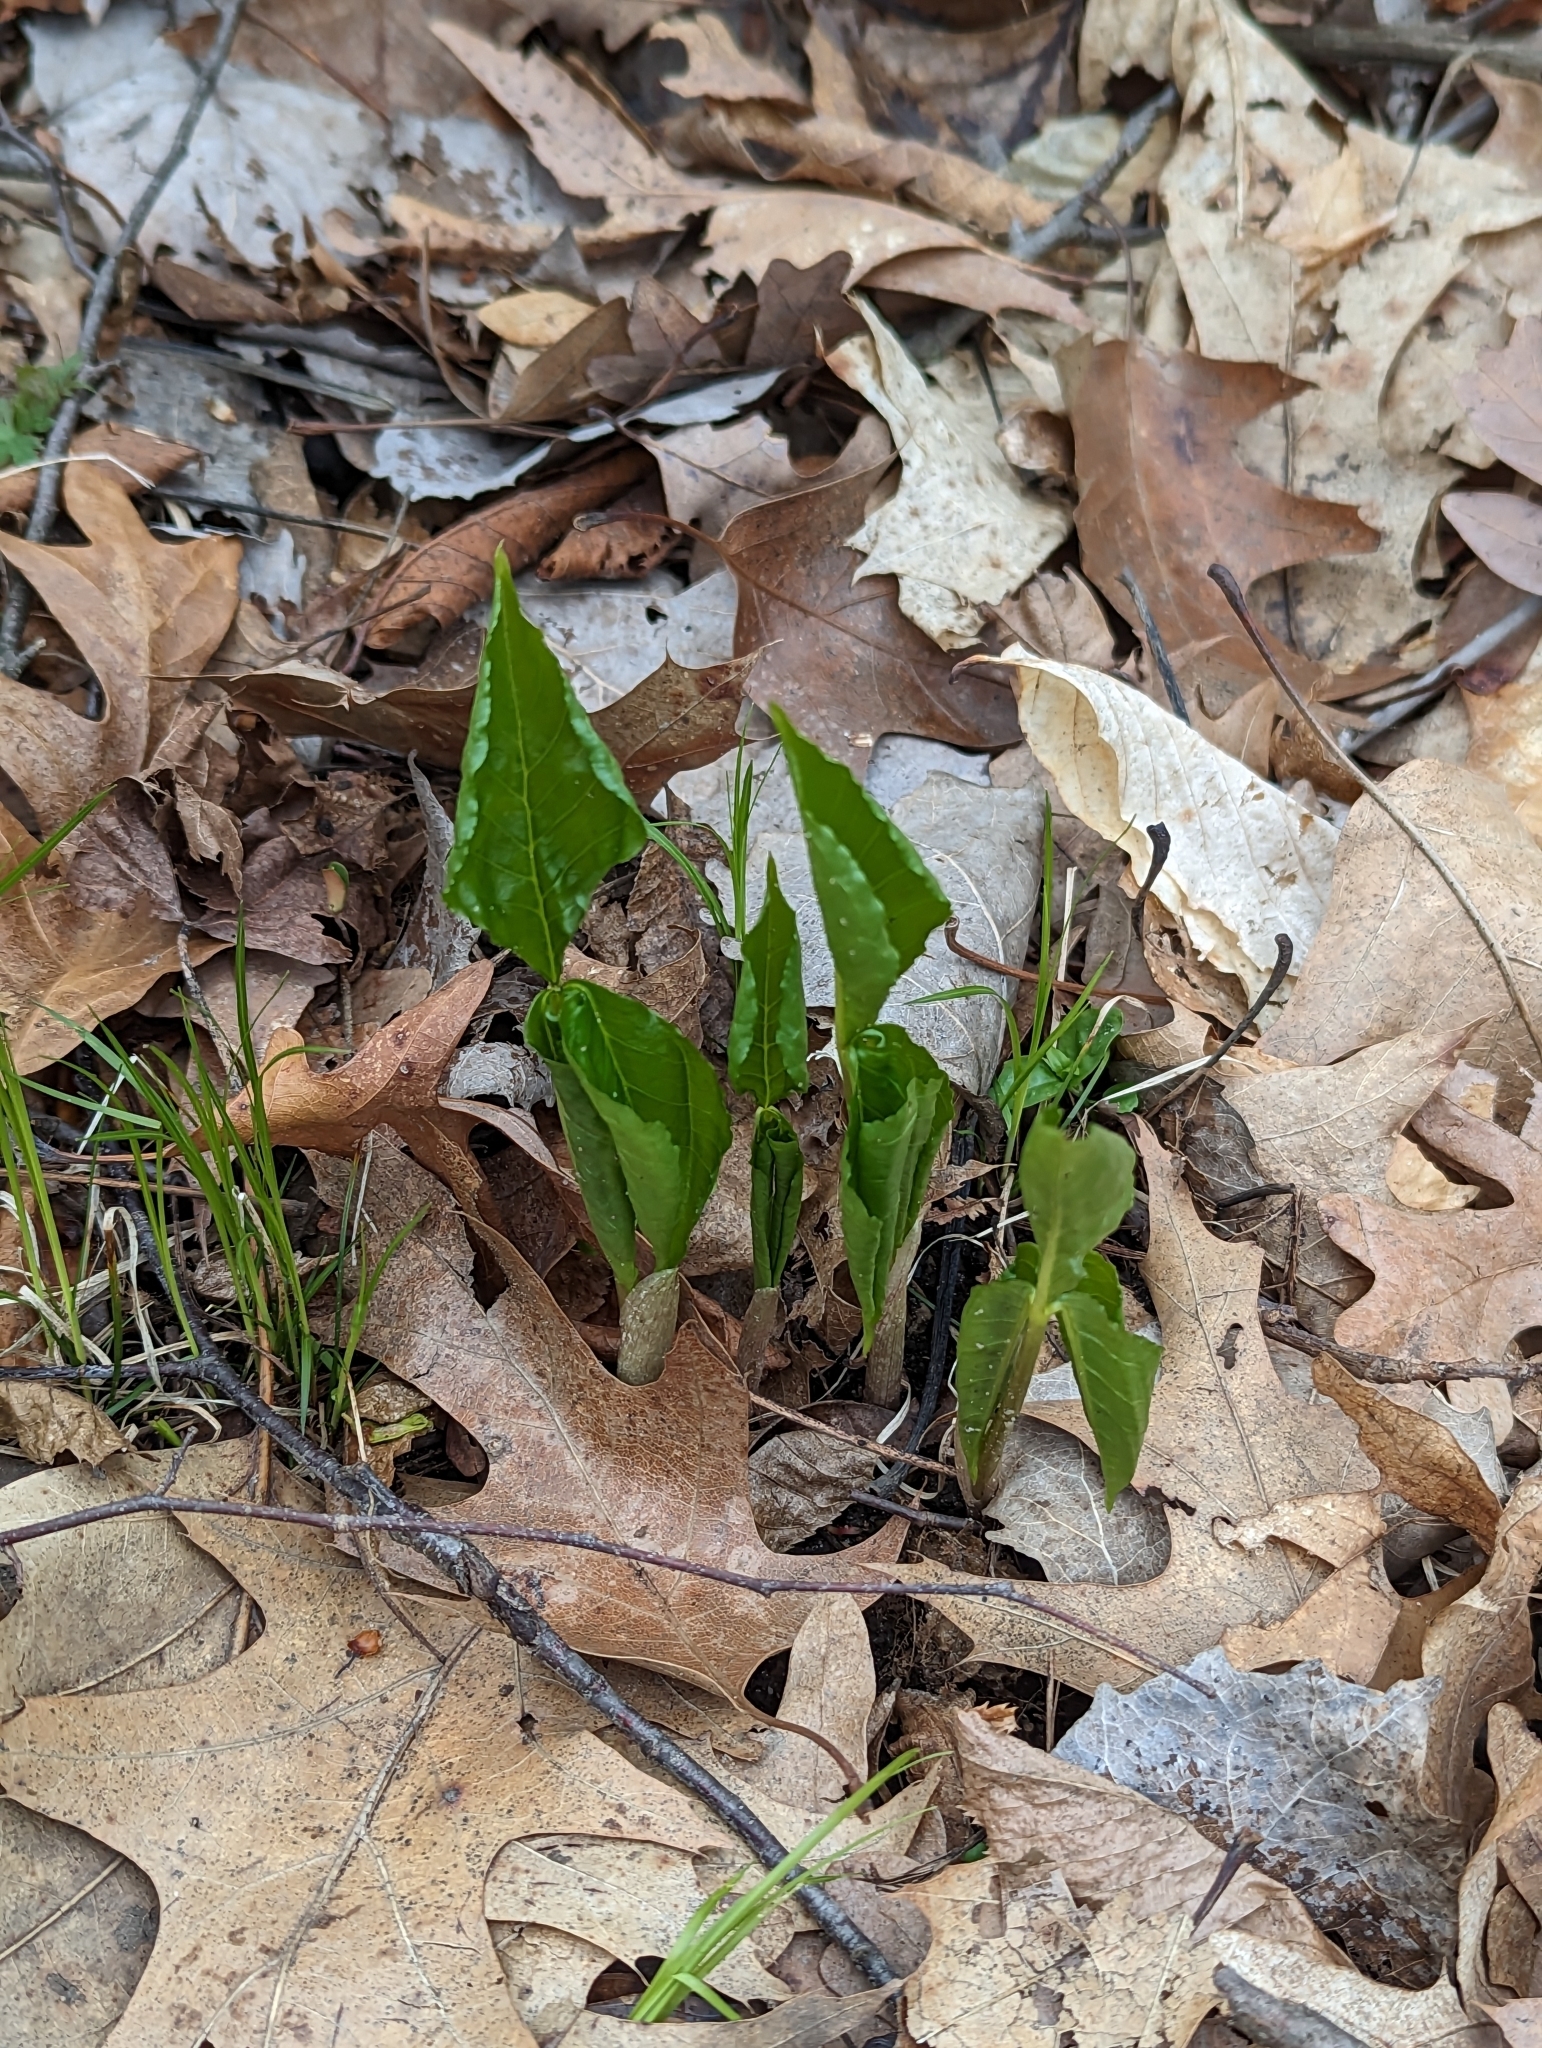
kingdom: Plantae
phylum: Tracheophyta
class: Liliopsida
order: Alismatales
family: Araceae
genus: Arisaema
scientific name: Arisaema triphyllum
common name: Jack-in-the-pulpit
